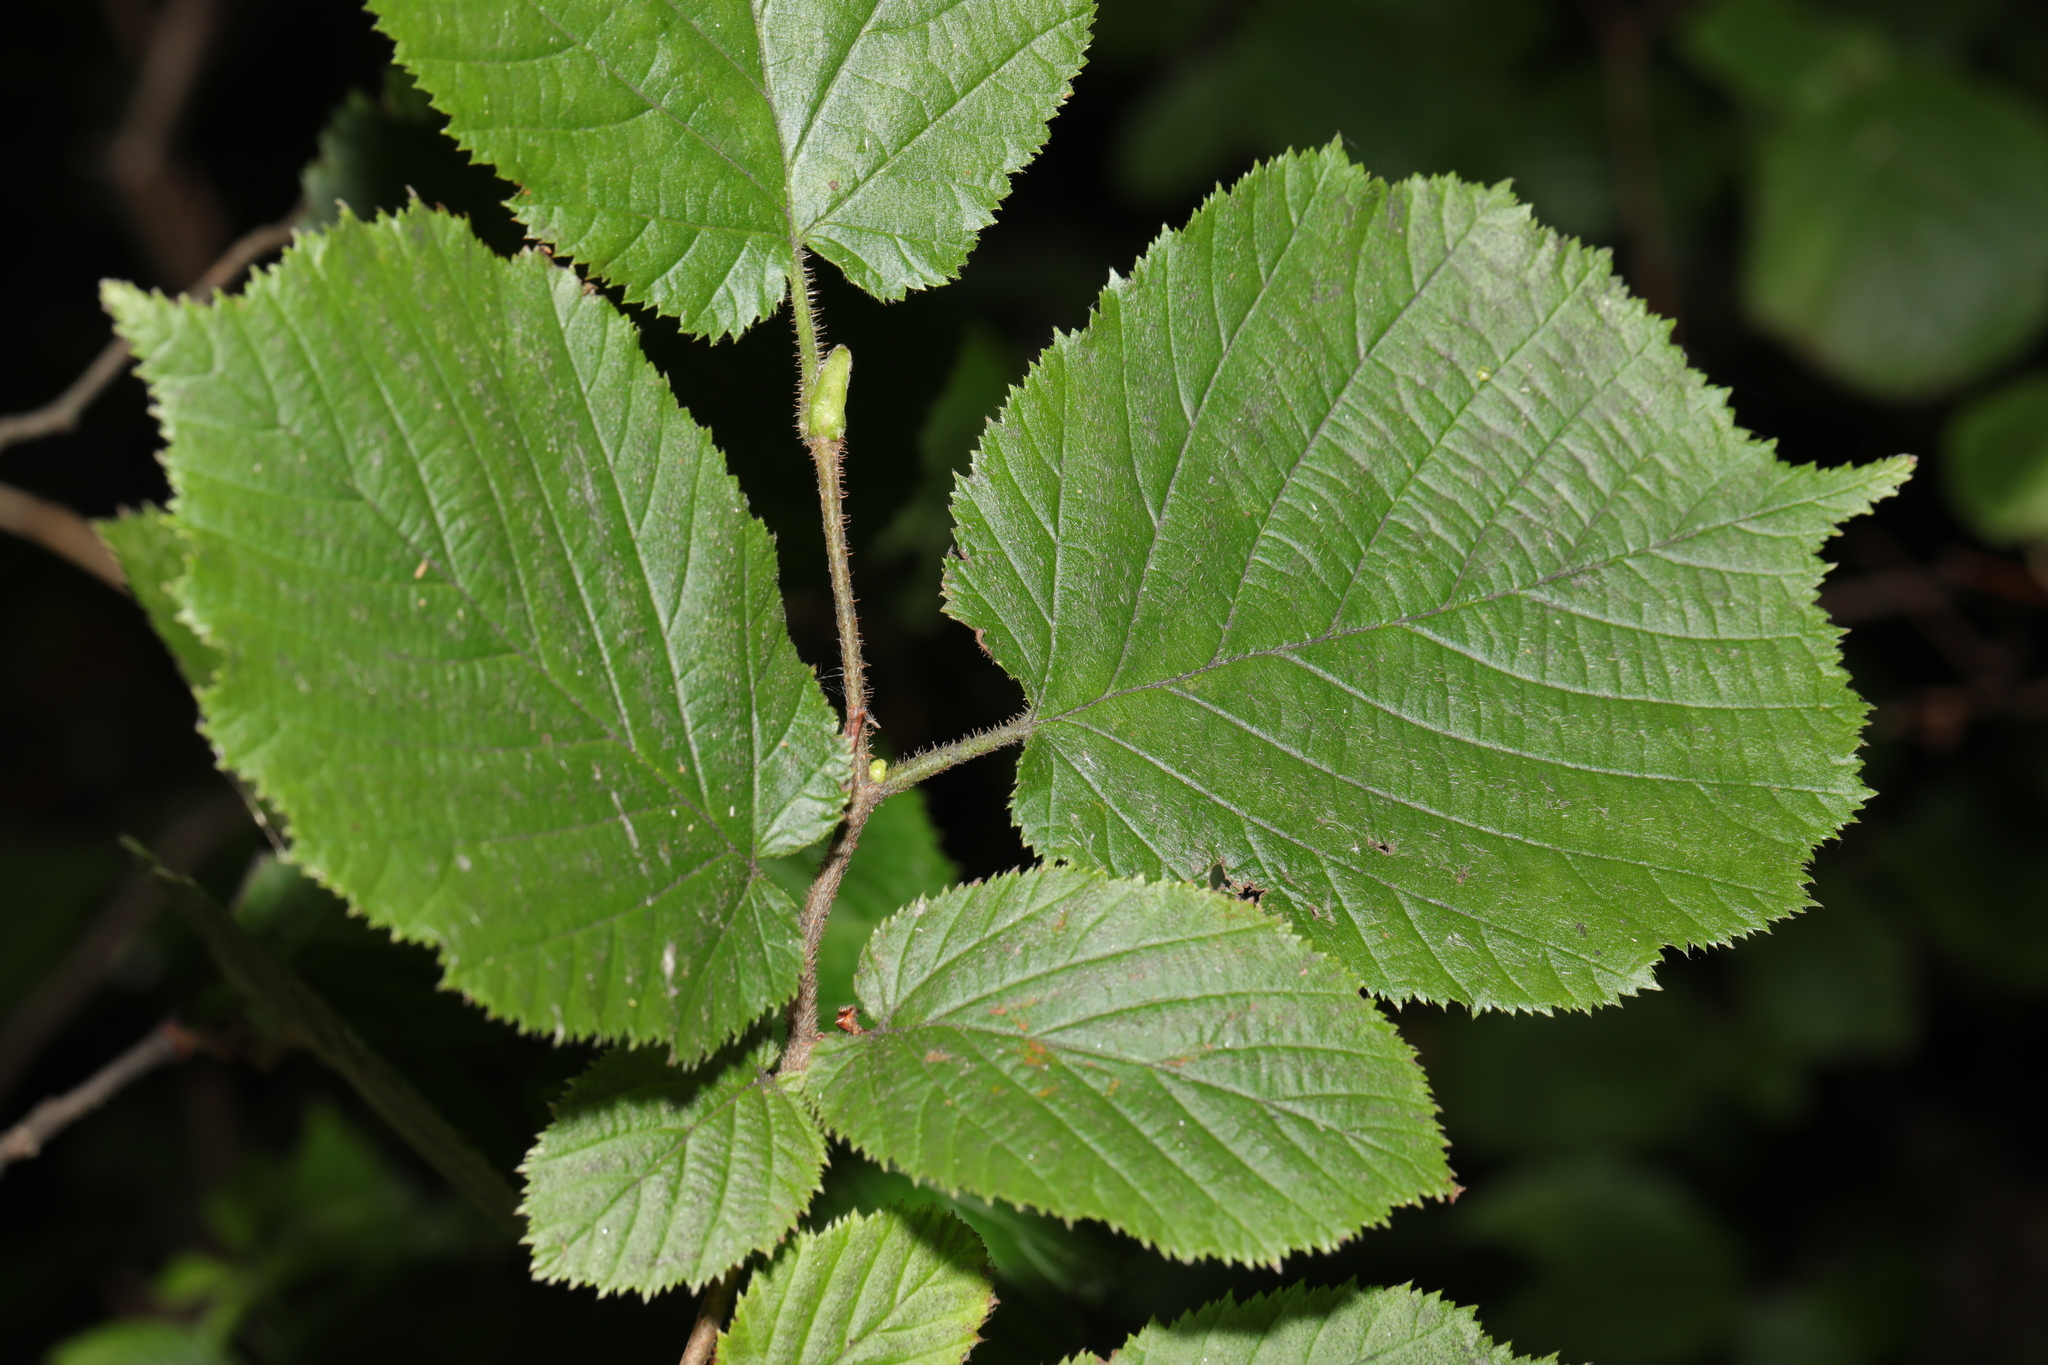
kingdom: Plantae
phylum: Tracheophyta
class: Magnoliopsida
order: Fagales
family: Betulaceae
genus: Corylus
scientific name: Corylus avellana
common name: European hazel
